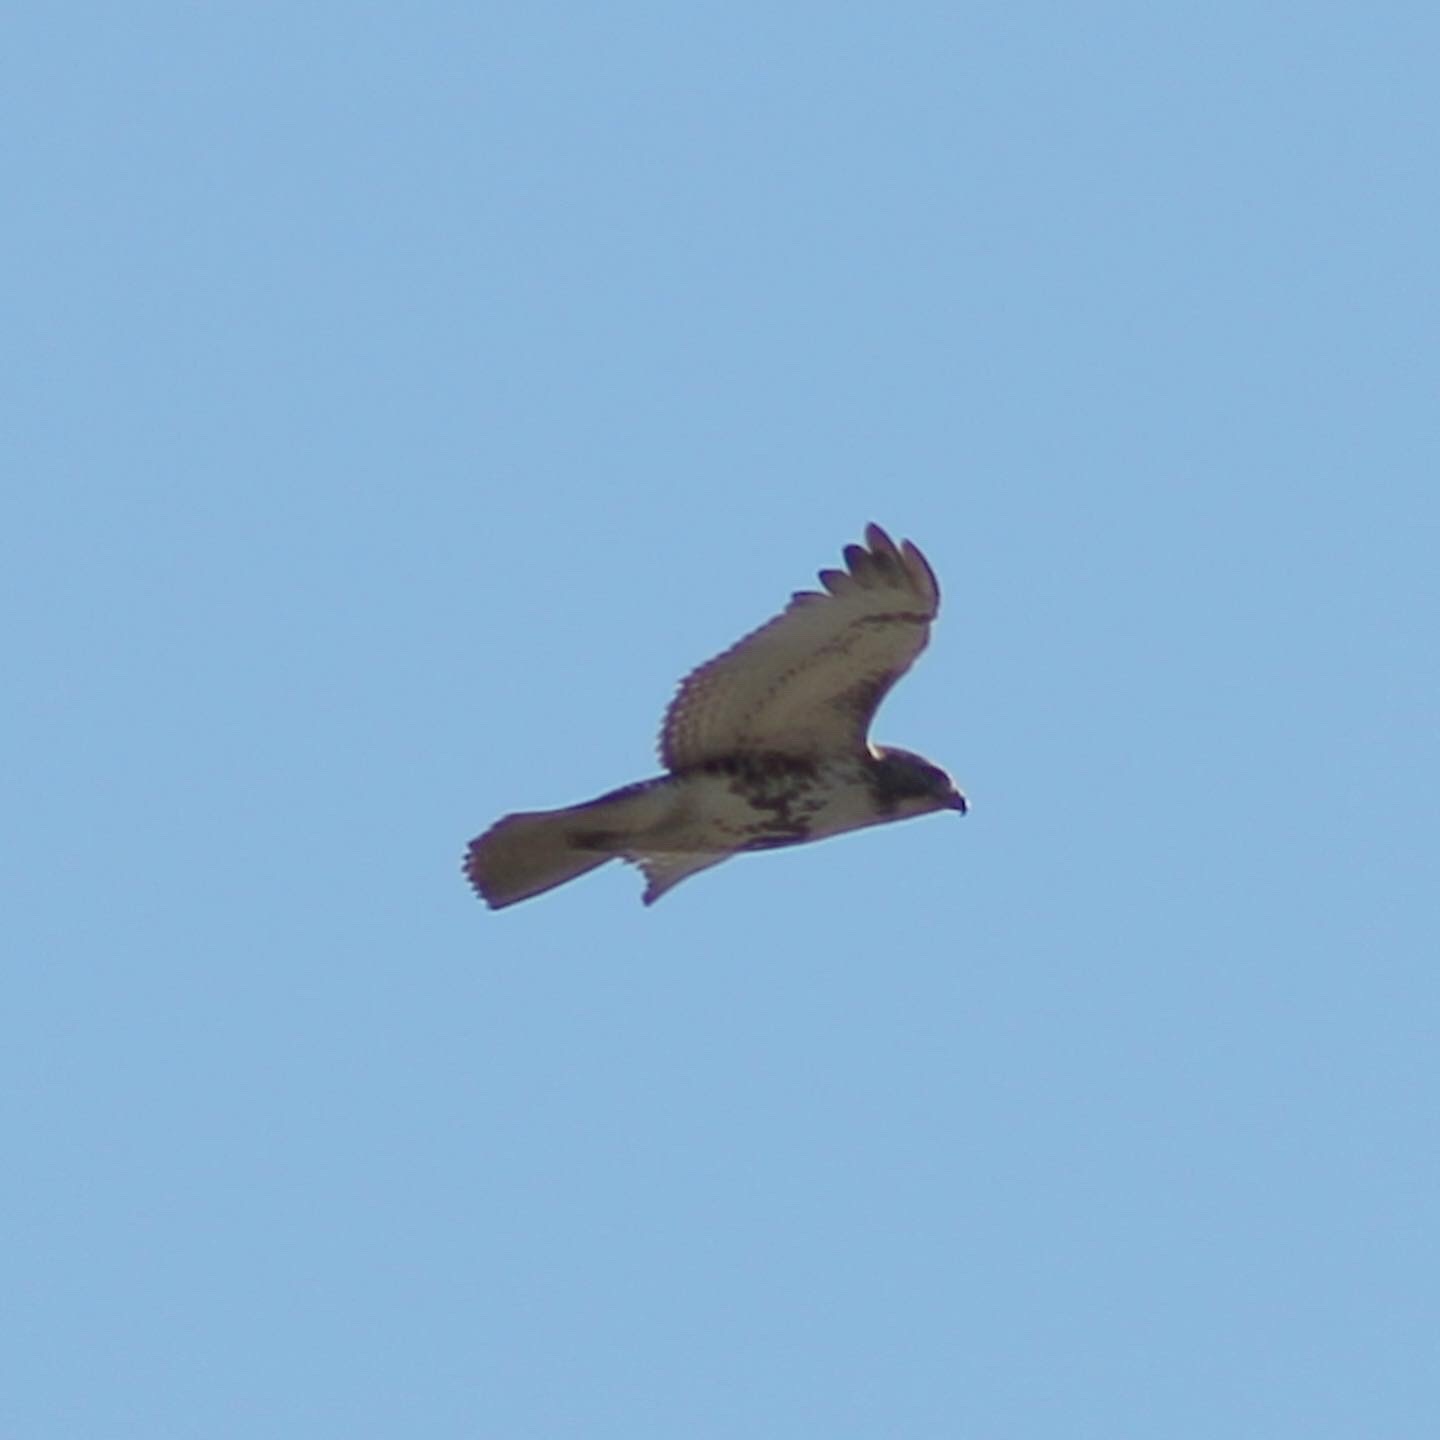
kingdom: Animalia
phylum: Chordata
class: Aves
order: Accipitriformes
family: Accipitridae
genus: Buteo
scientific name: Buteo jamaicensis
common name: Red-tailed hawk
